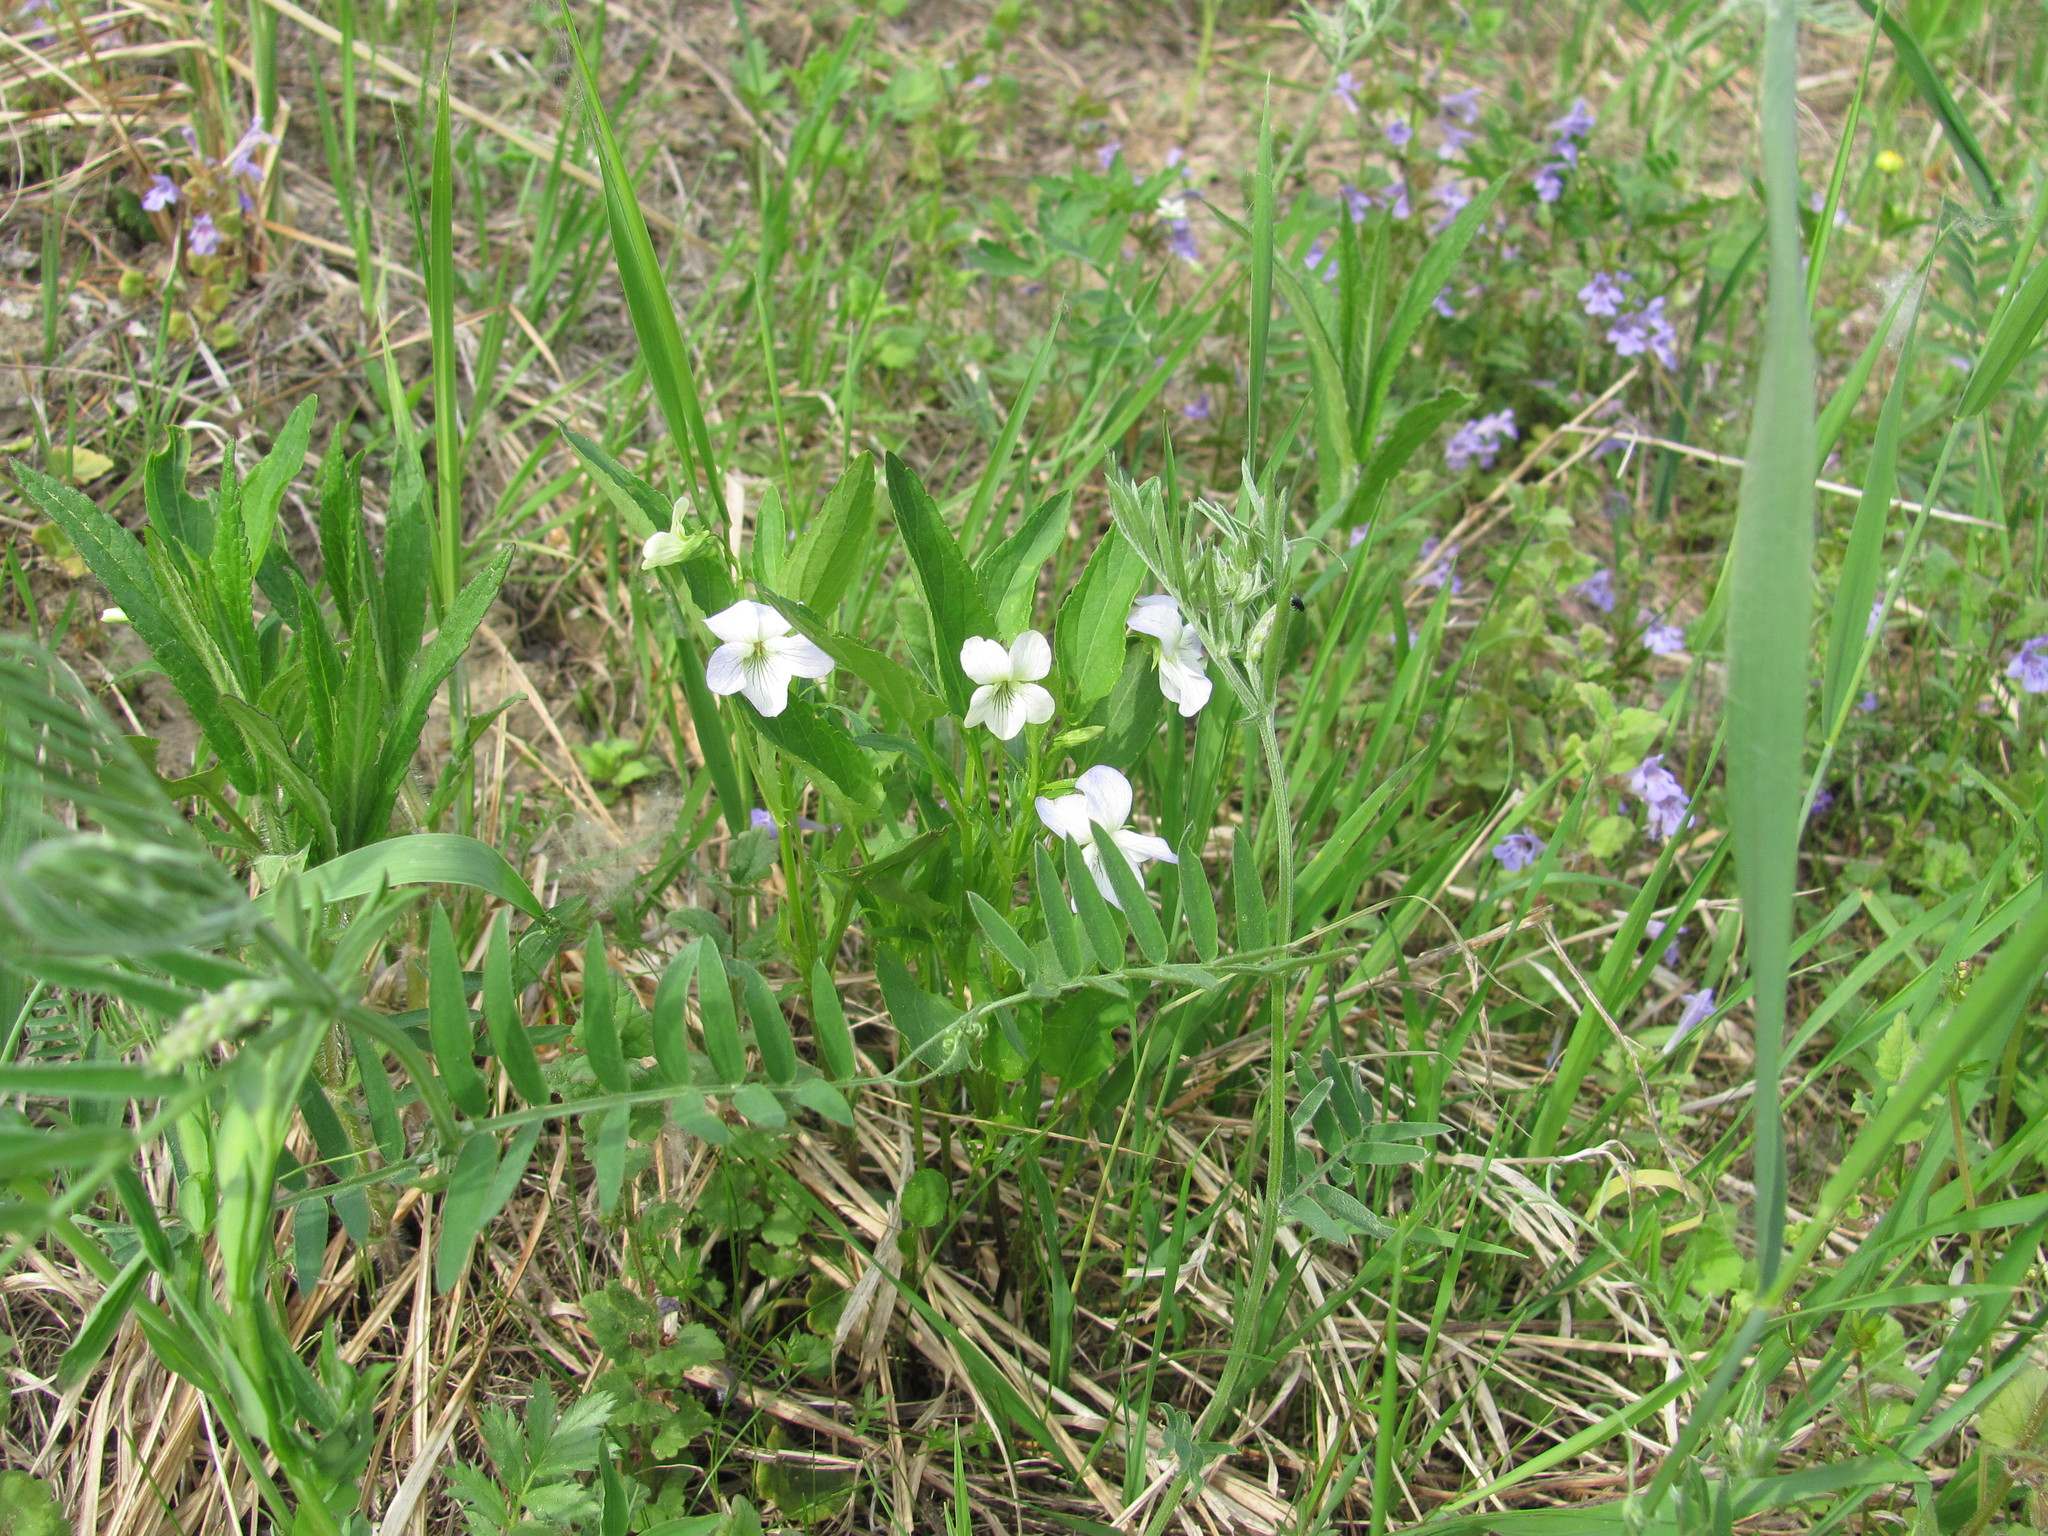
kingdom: Plantae
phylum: Tracheophyta
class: Magnoliopsida
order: Malpighiales
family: Violaceae
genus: Viola
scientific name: Viola patrinii
